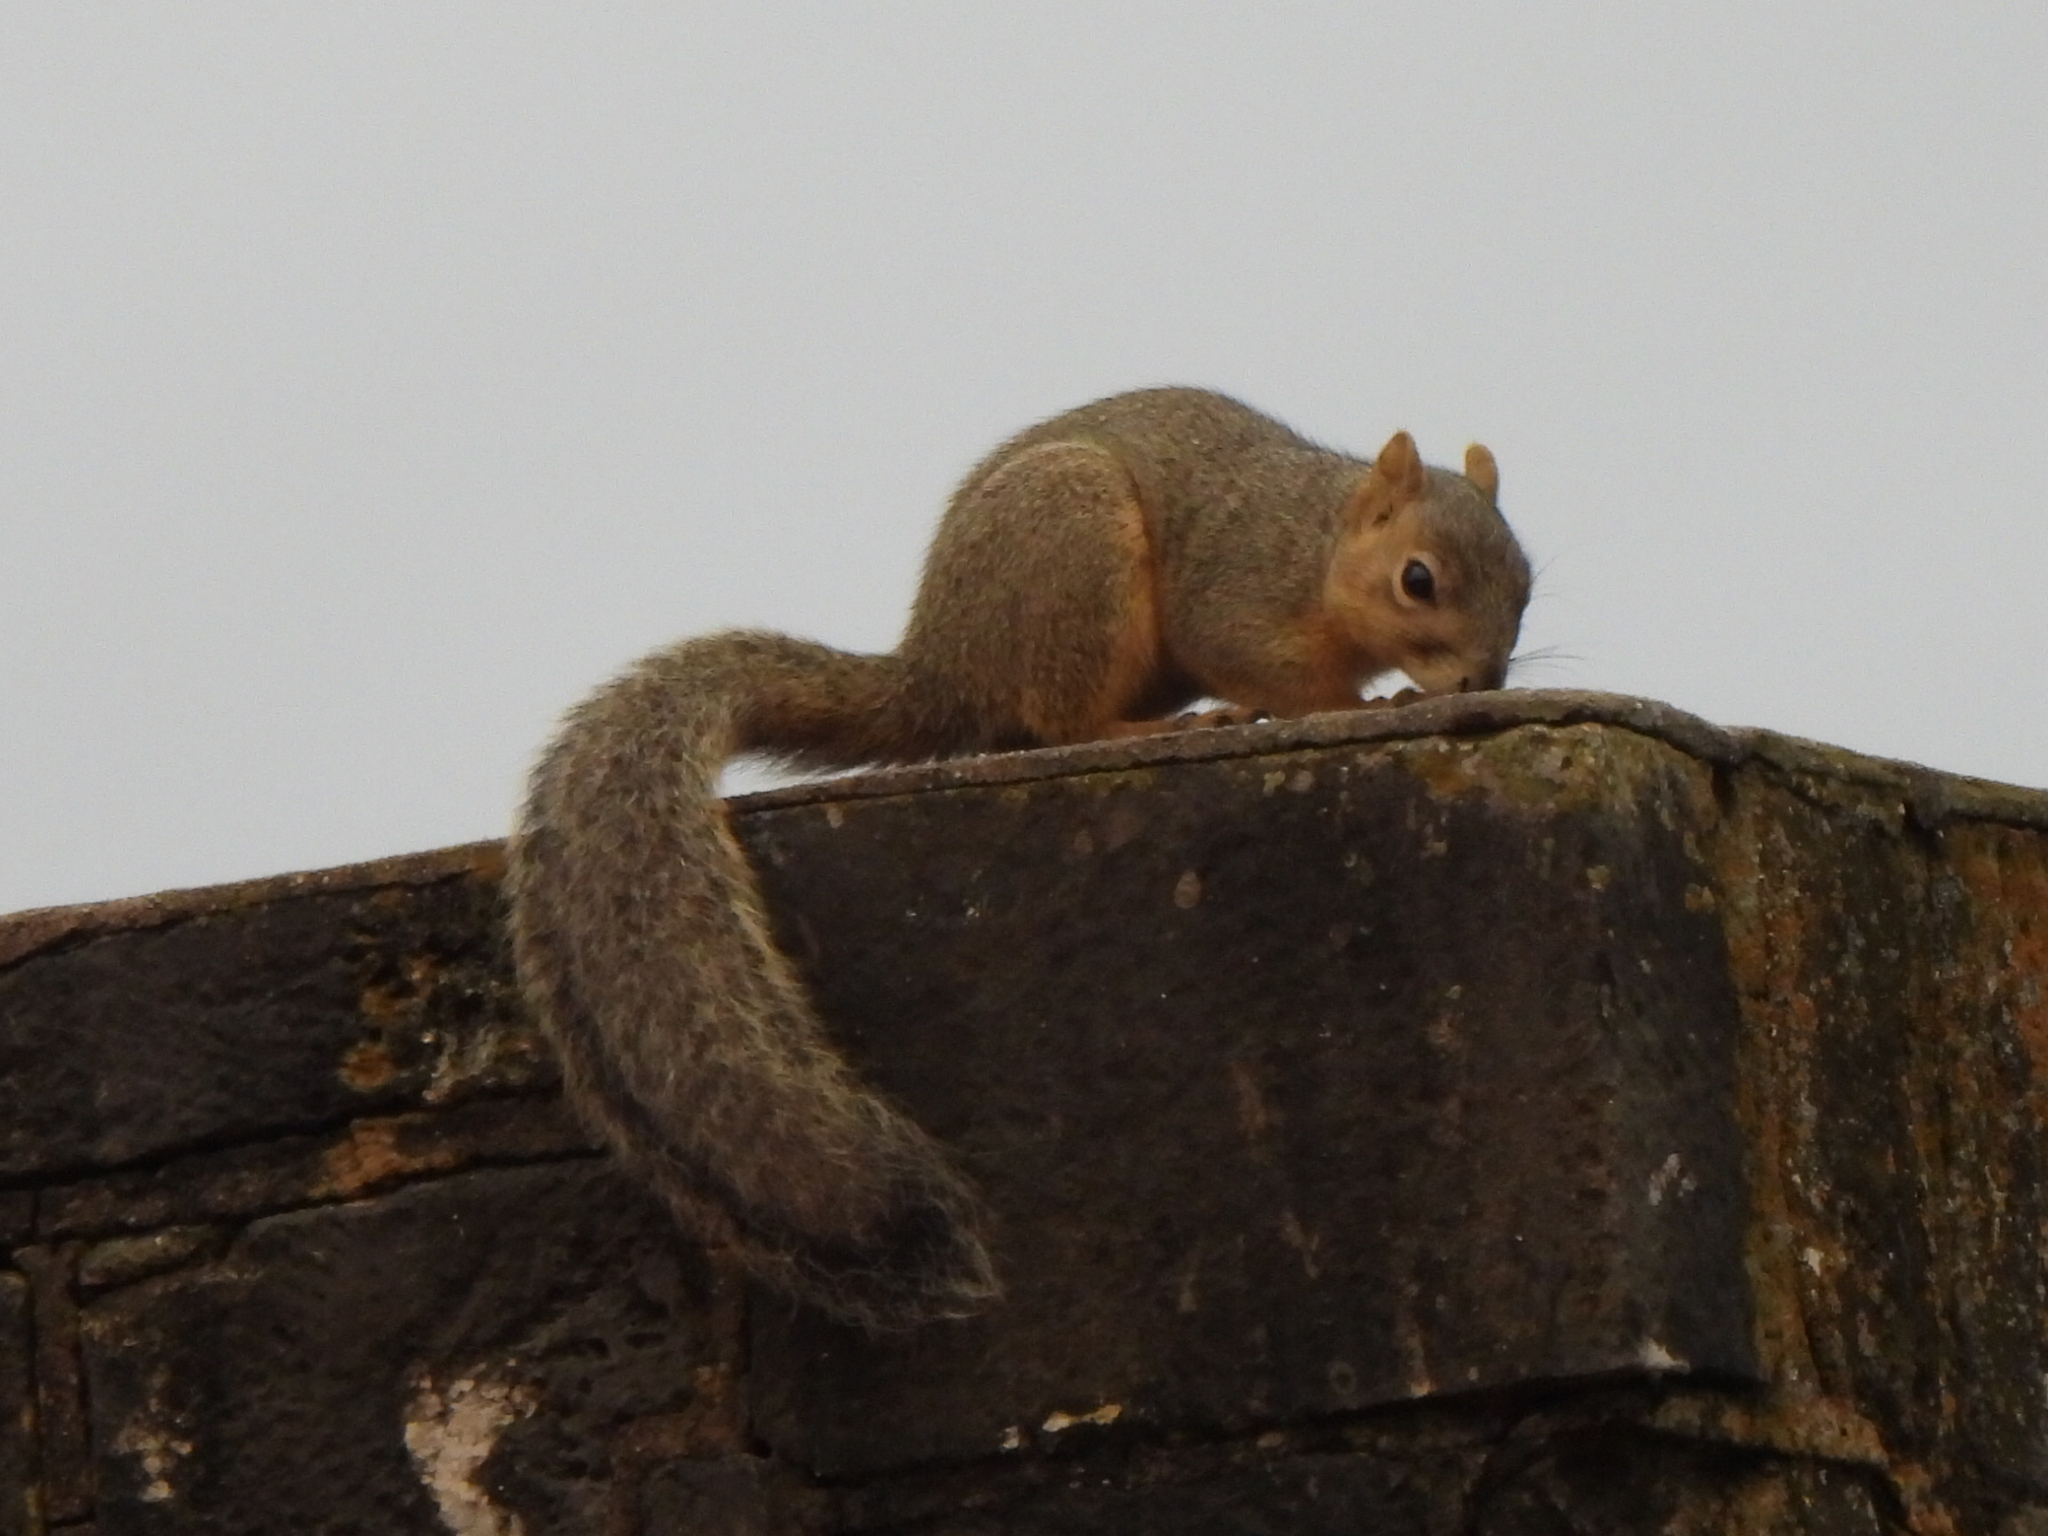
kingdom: Animalia
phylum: Chordata
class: Mammalia
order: Rodentia
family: Sciuridae
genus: Sciurus
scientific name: Sciurus niger
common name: Fox squirrel
